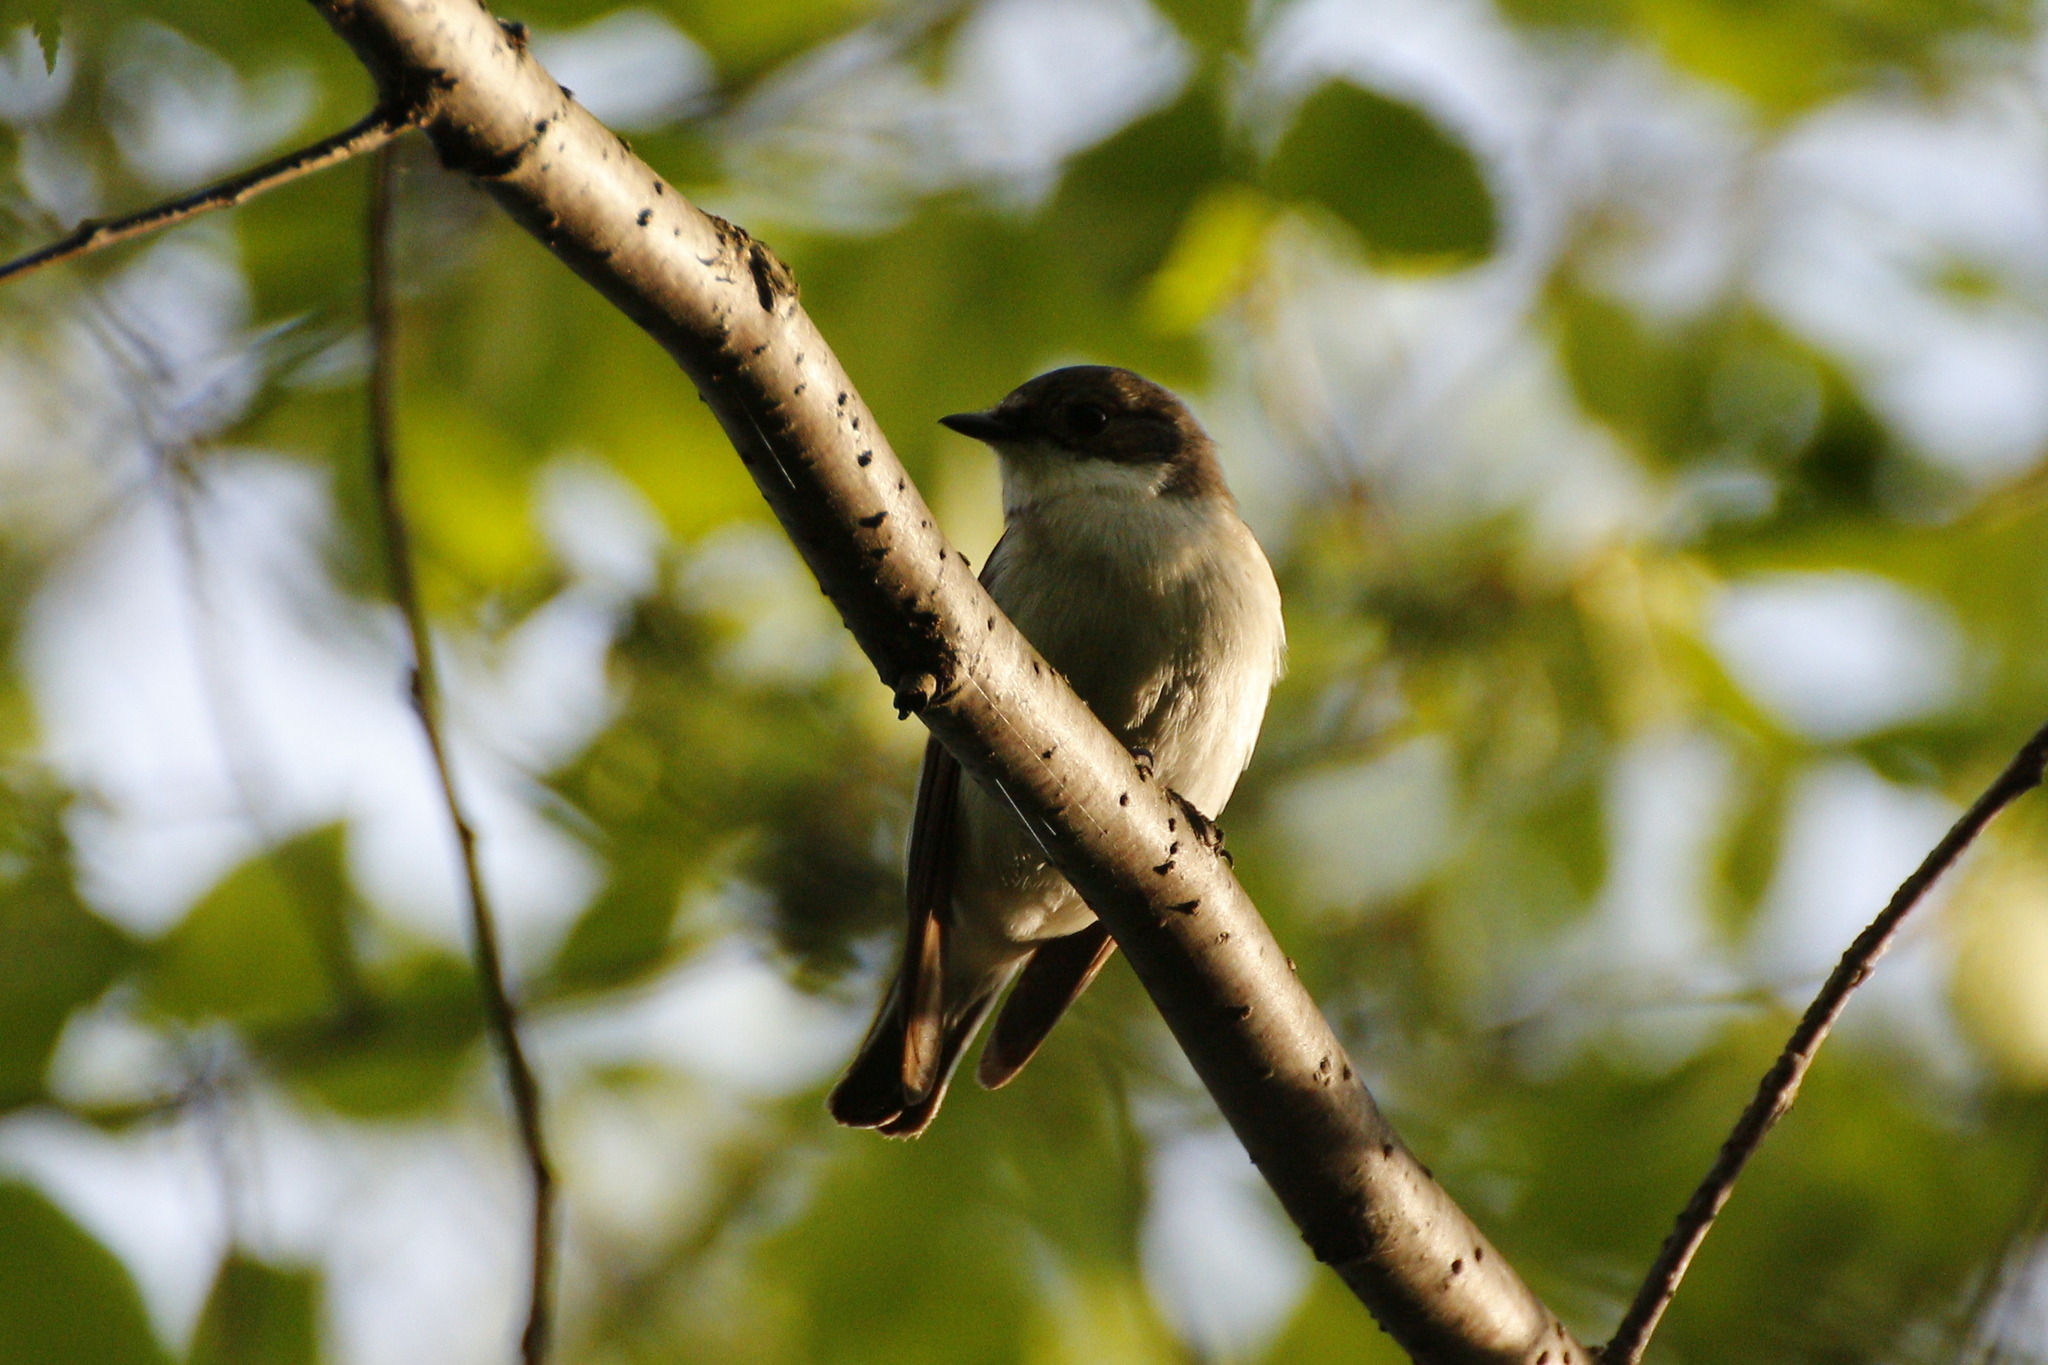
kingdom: Animalia
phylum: Chordata
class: Aves
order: Passeriformes
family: Muscicapidae
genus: Ficedula
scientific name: Ficedula hypoleuca
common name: European pied flycatcher
